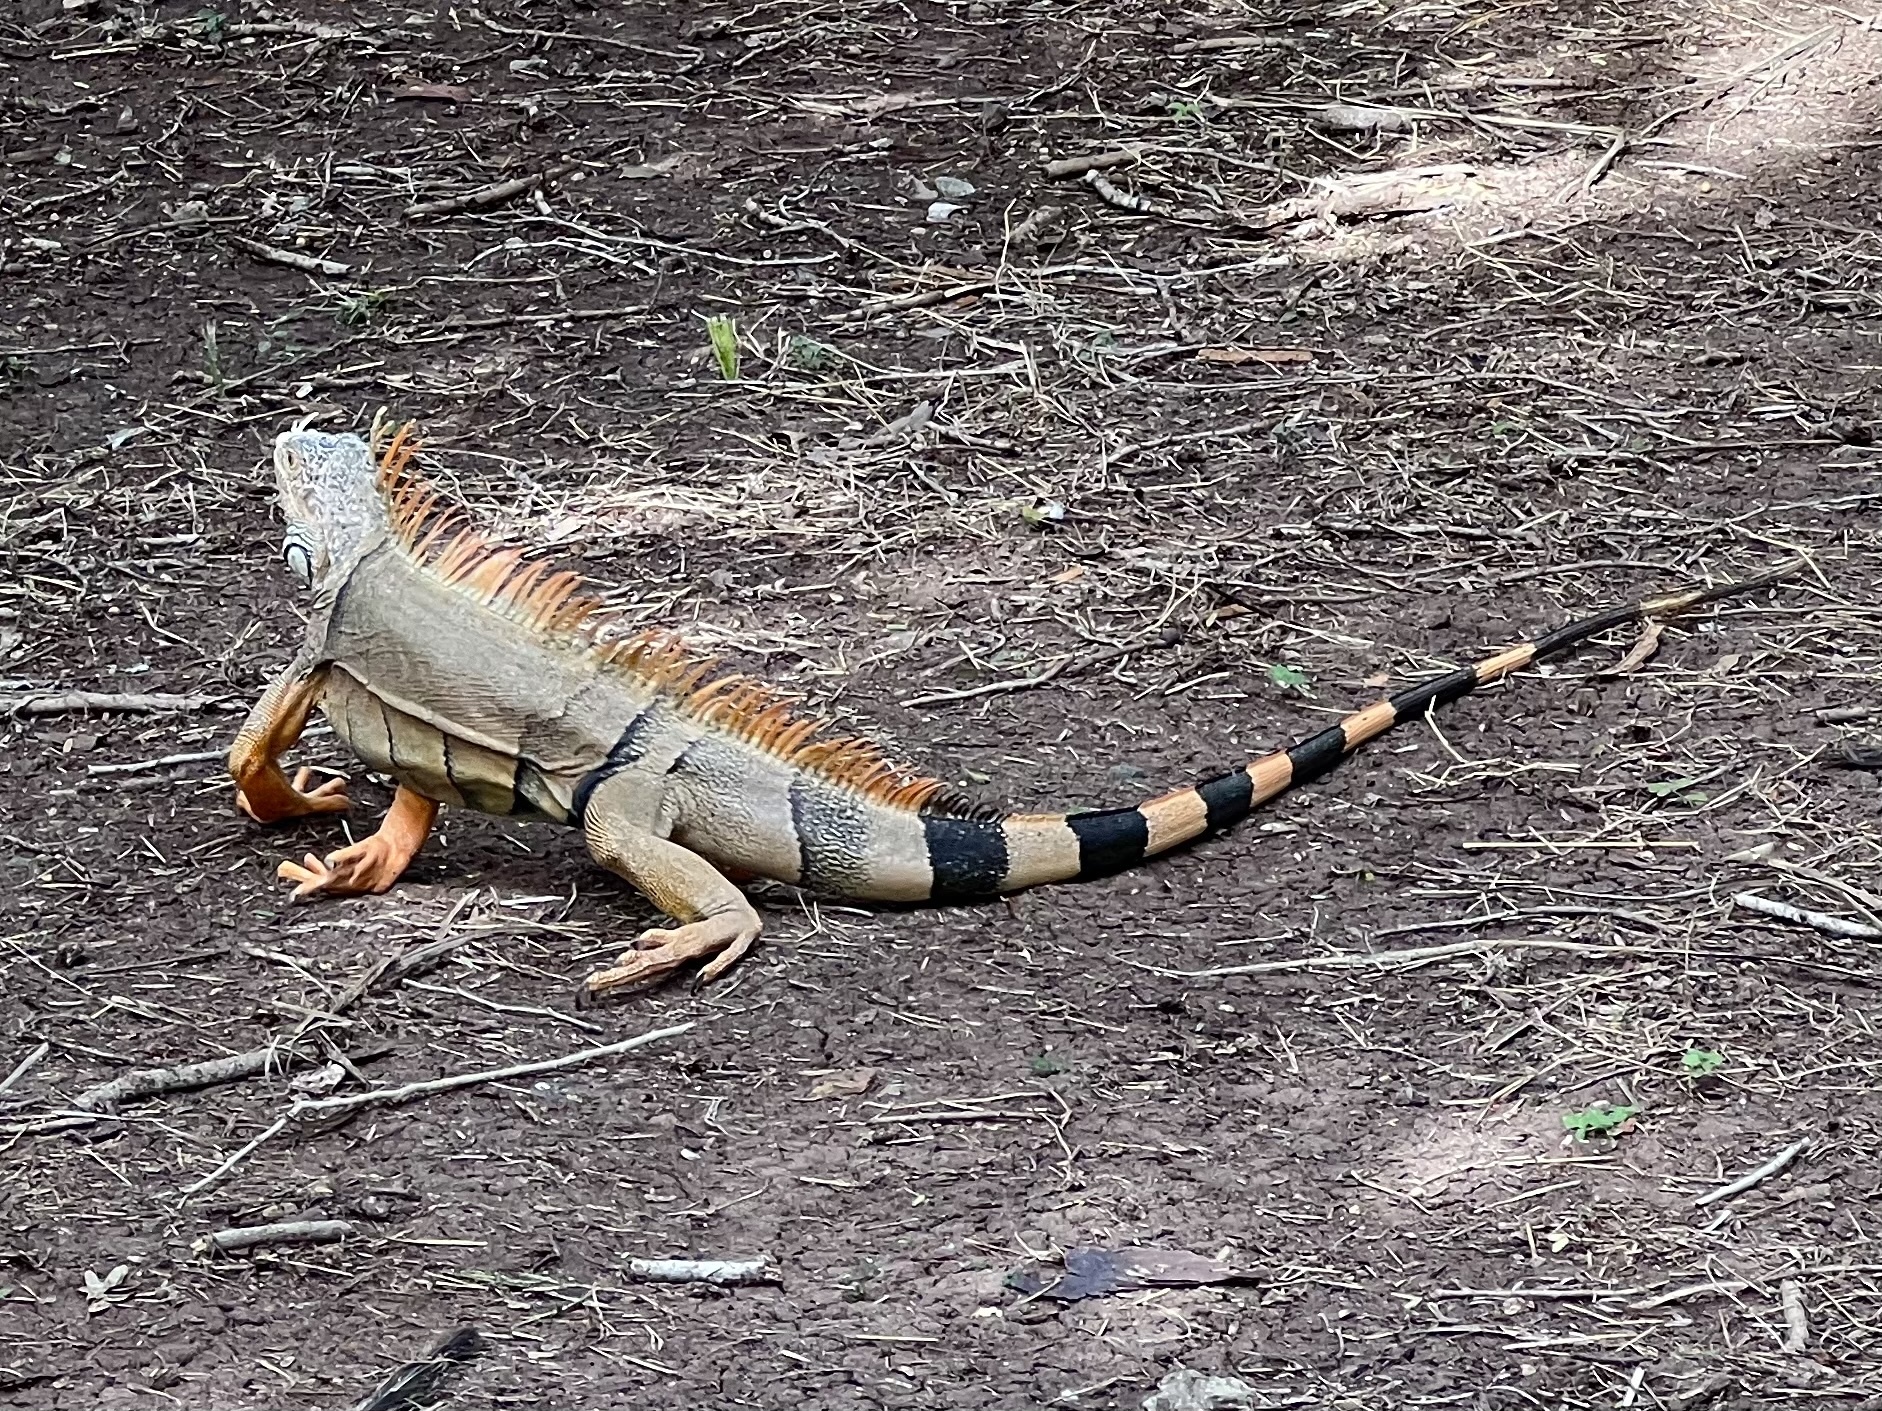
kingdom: Animalia
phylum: Chordata
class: Squamata
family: Iguanidae
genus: Iguana
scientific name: Iguana iguana
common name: Green iguana
